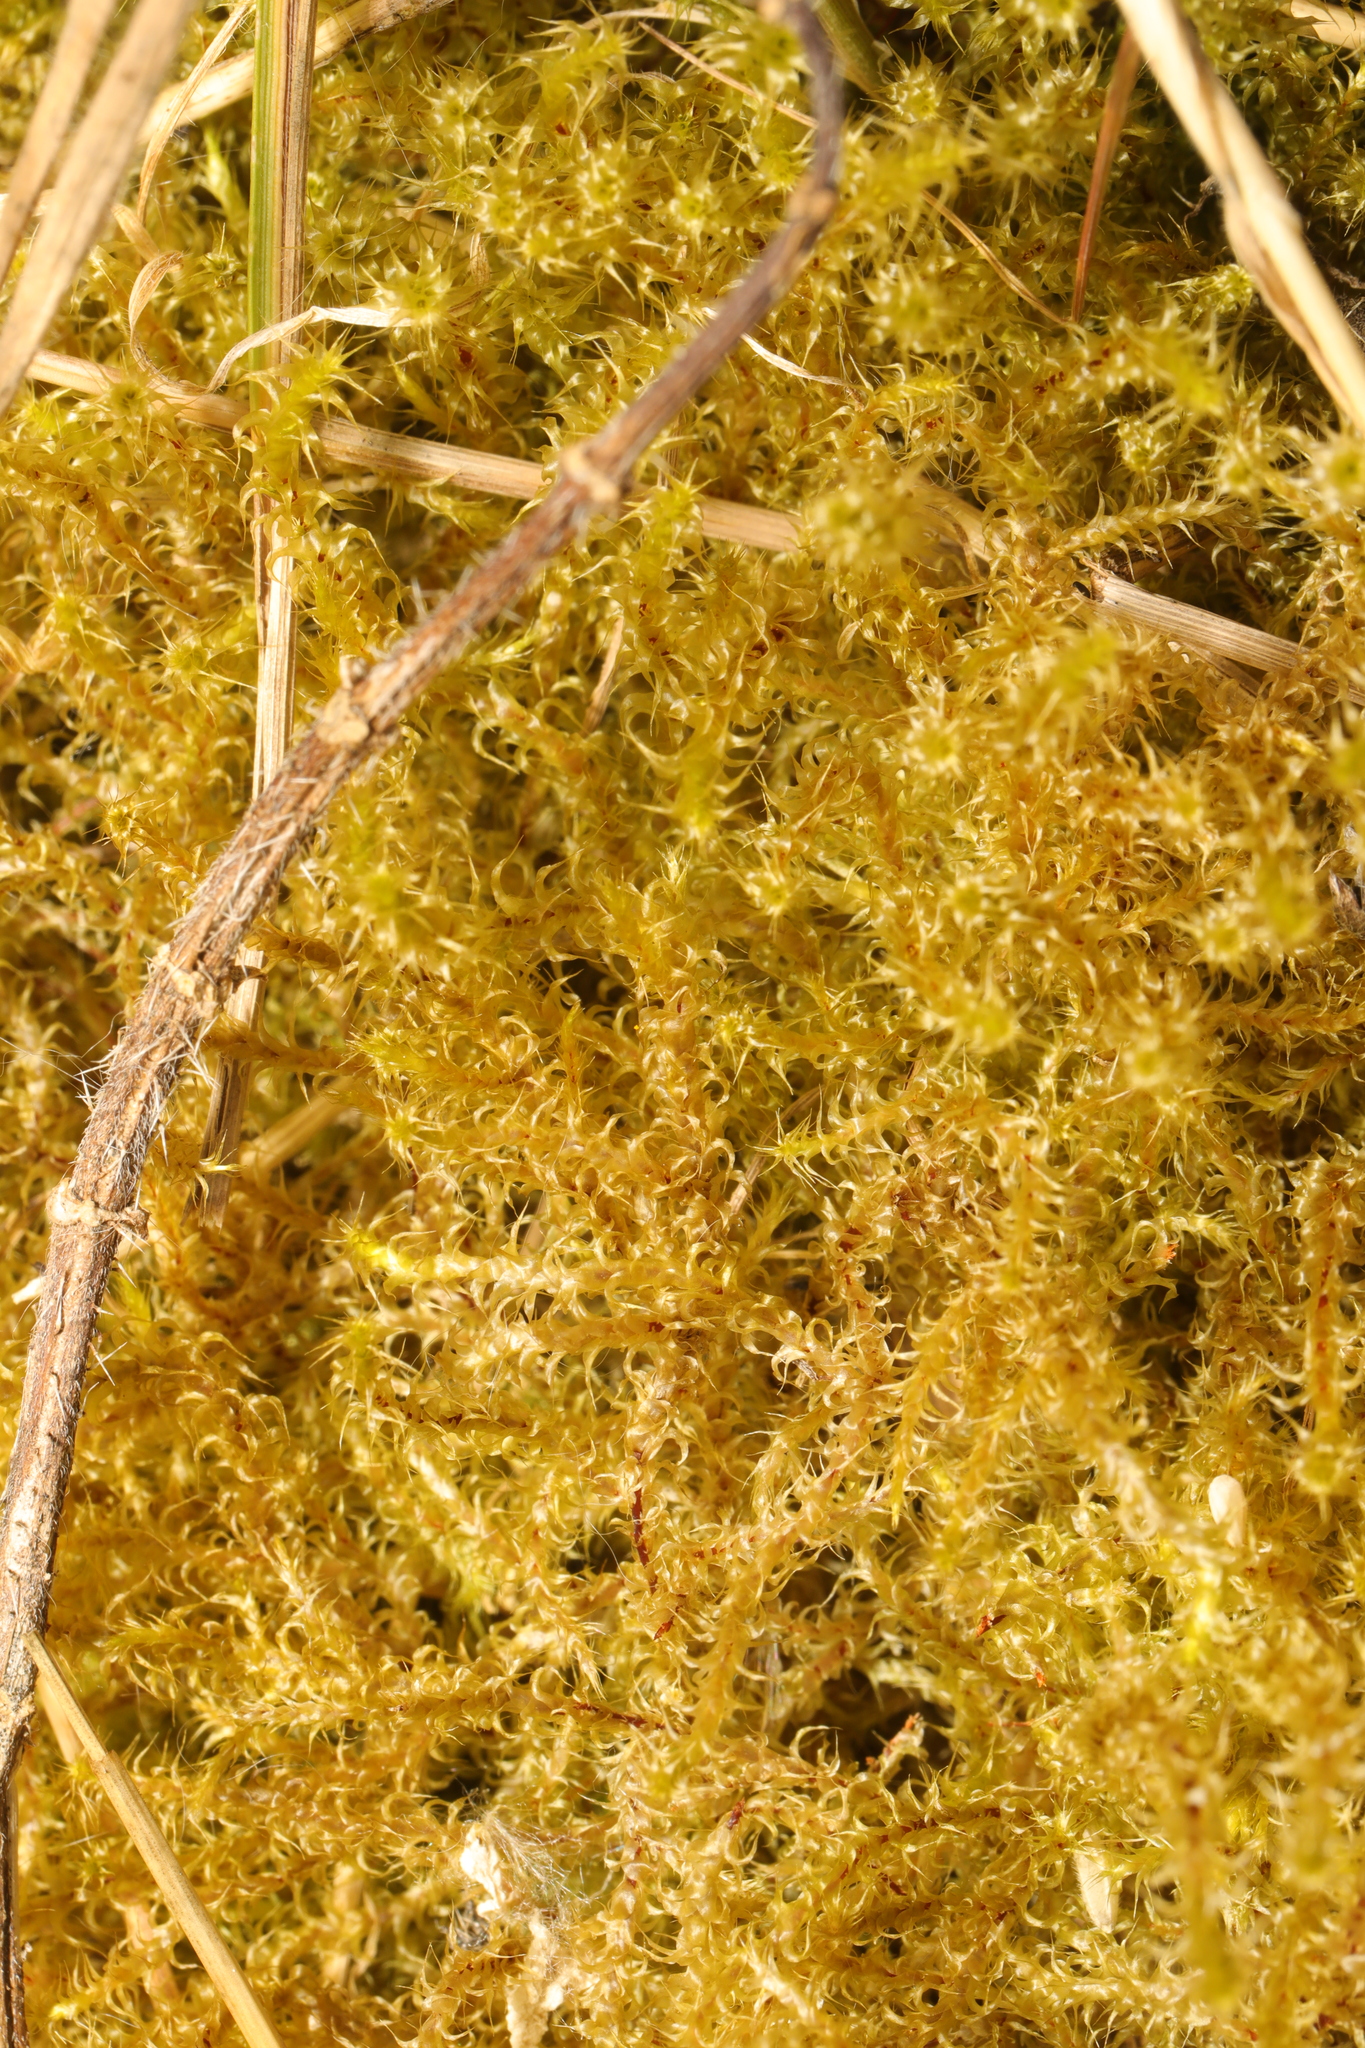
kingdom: Plantae
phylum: Bryophyta
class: Bryopsida
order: Hypnales
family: Hylocomiaceae
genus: Rhytidiadelphus
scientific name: Rhytidiadelphus squarrosus
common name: Springy turf-moss
